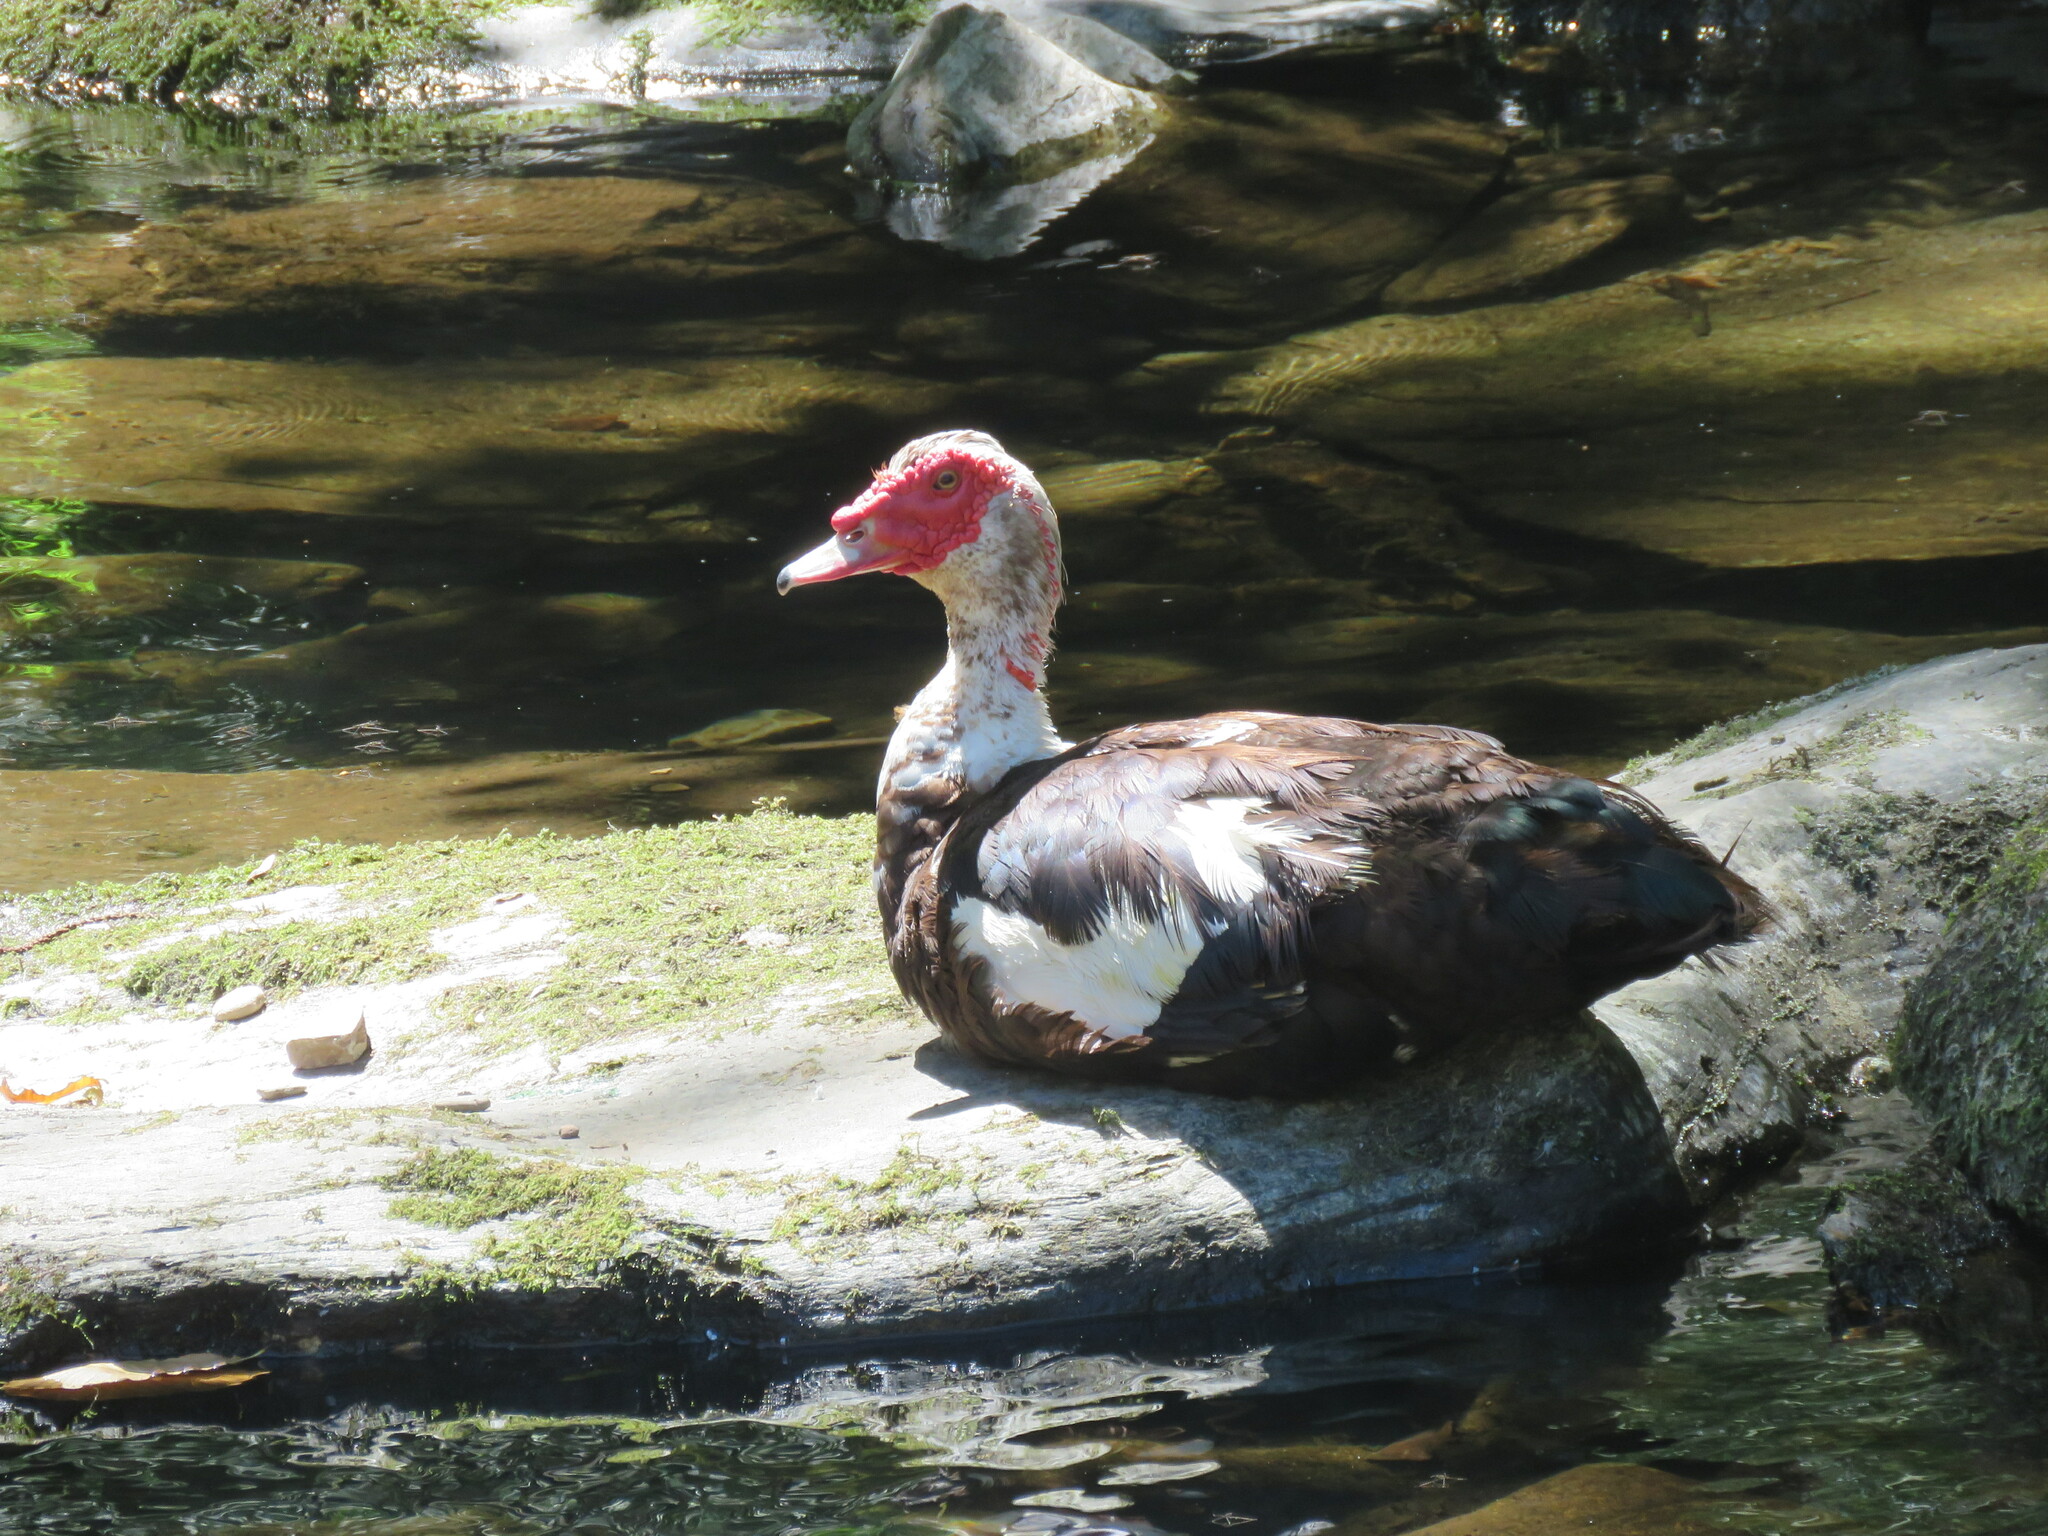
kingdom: Animalia
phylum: Chordata
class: Aves
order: Anseriformes
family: Anatidae
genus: Cairina
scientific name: Cairina moschata
